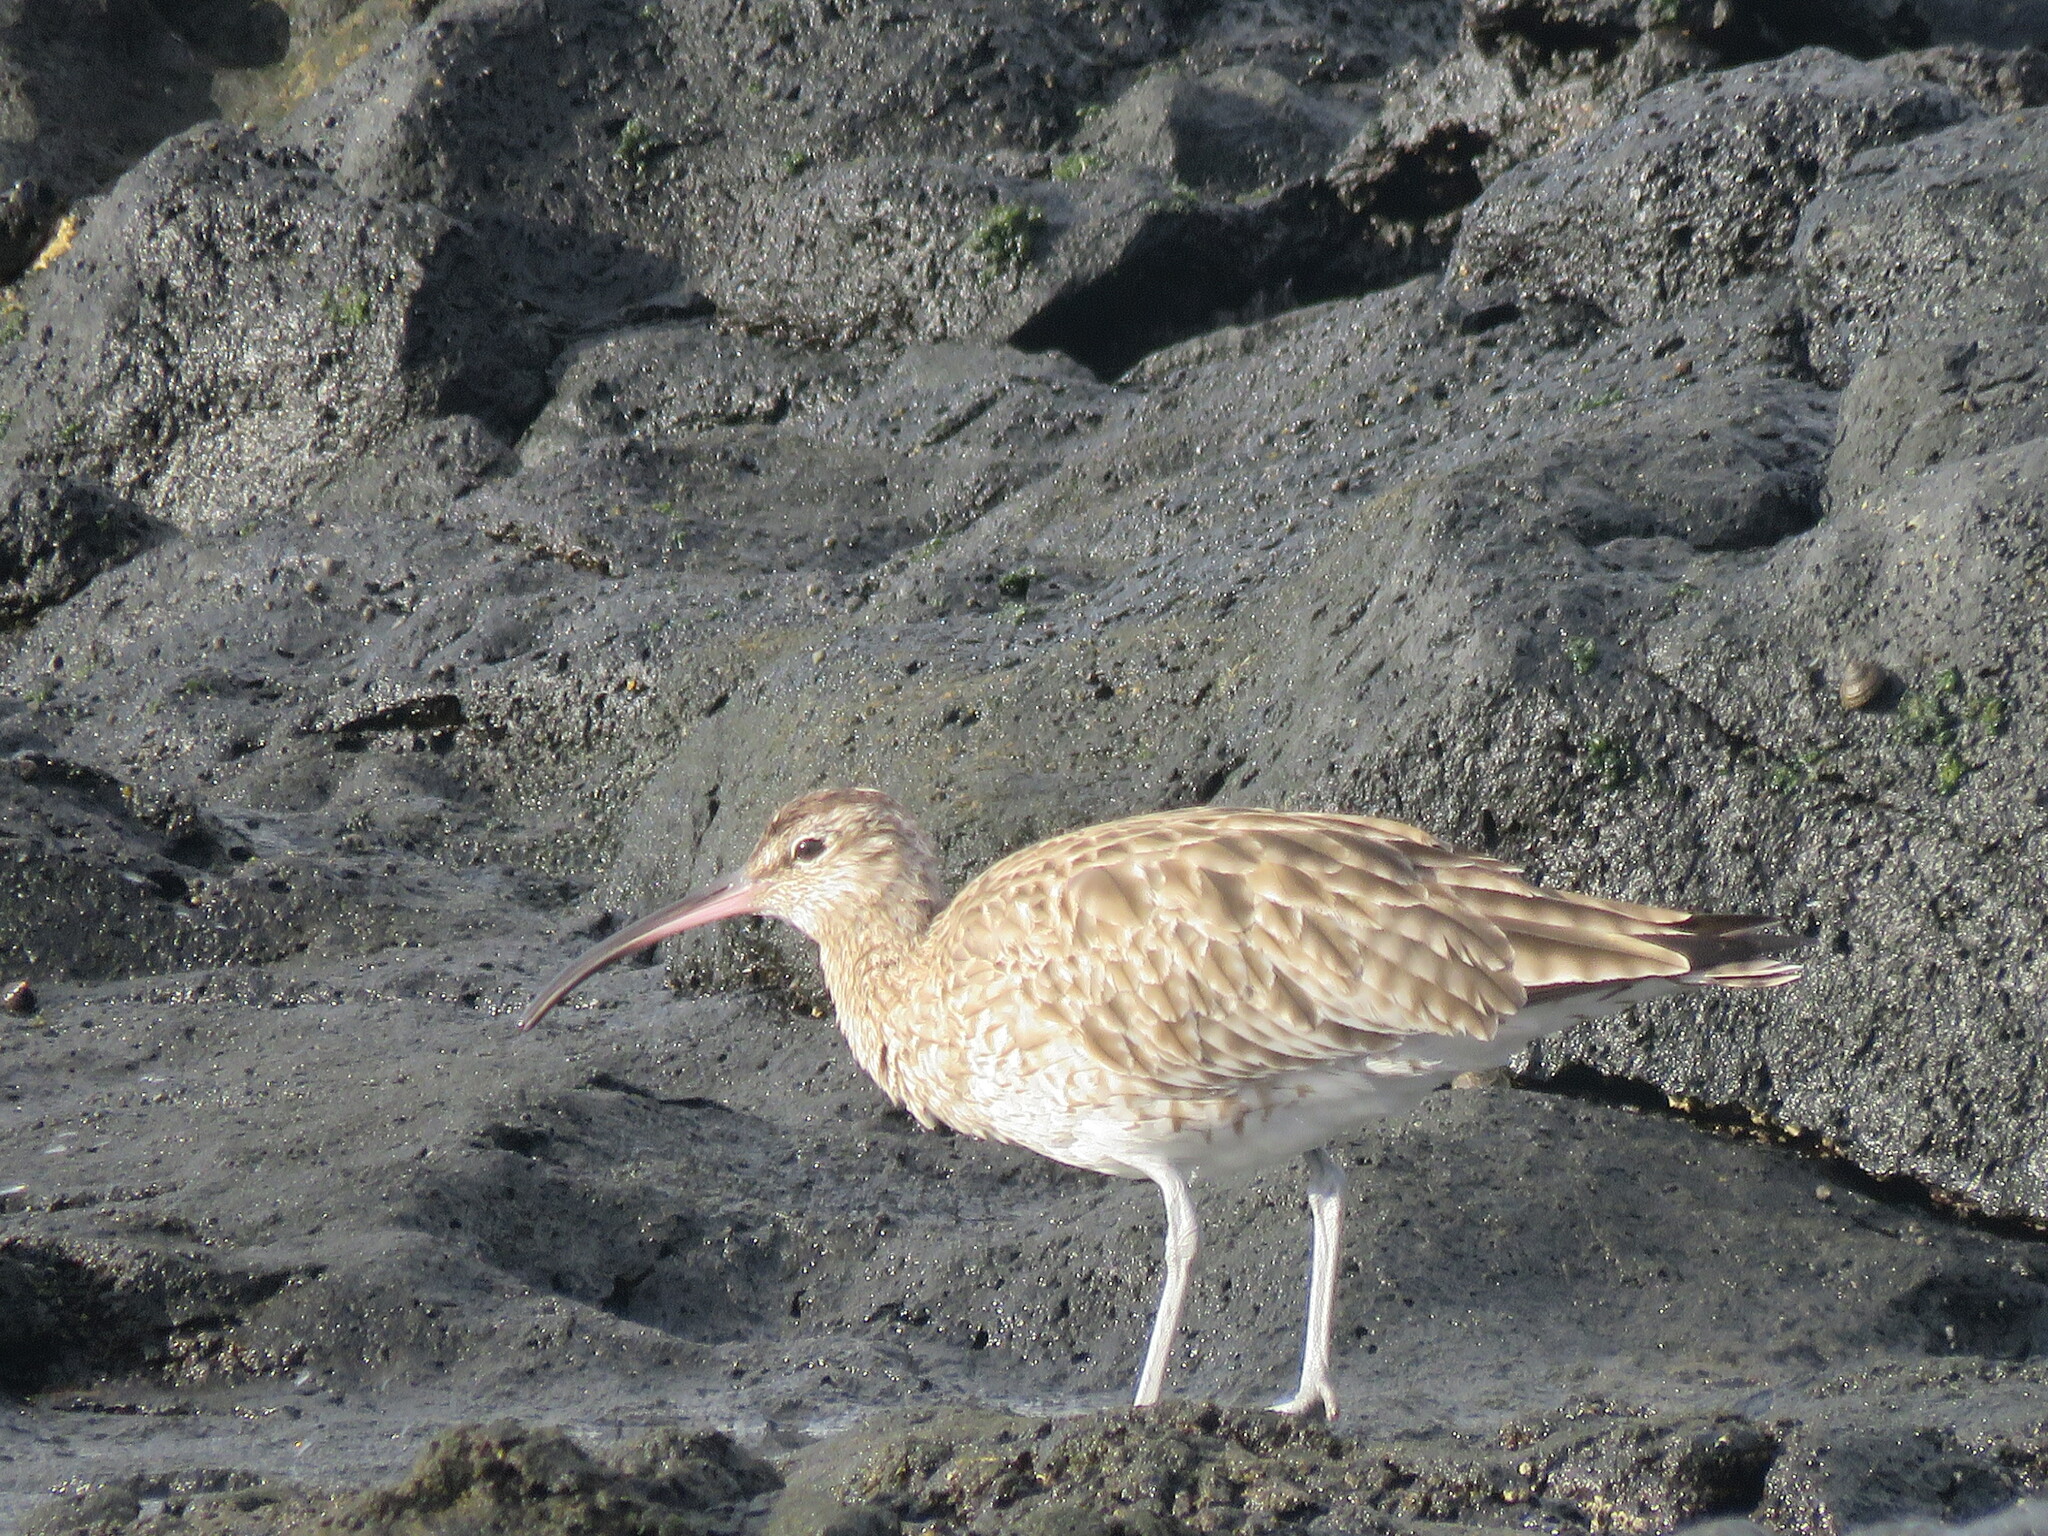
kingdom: Animalia
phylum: Chordata
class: Aves
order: Charadriiformes
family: Scolopacidae
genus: Numenius
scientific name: Numenius phaeopus
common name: Whimbrel
